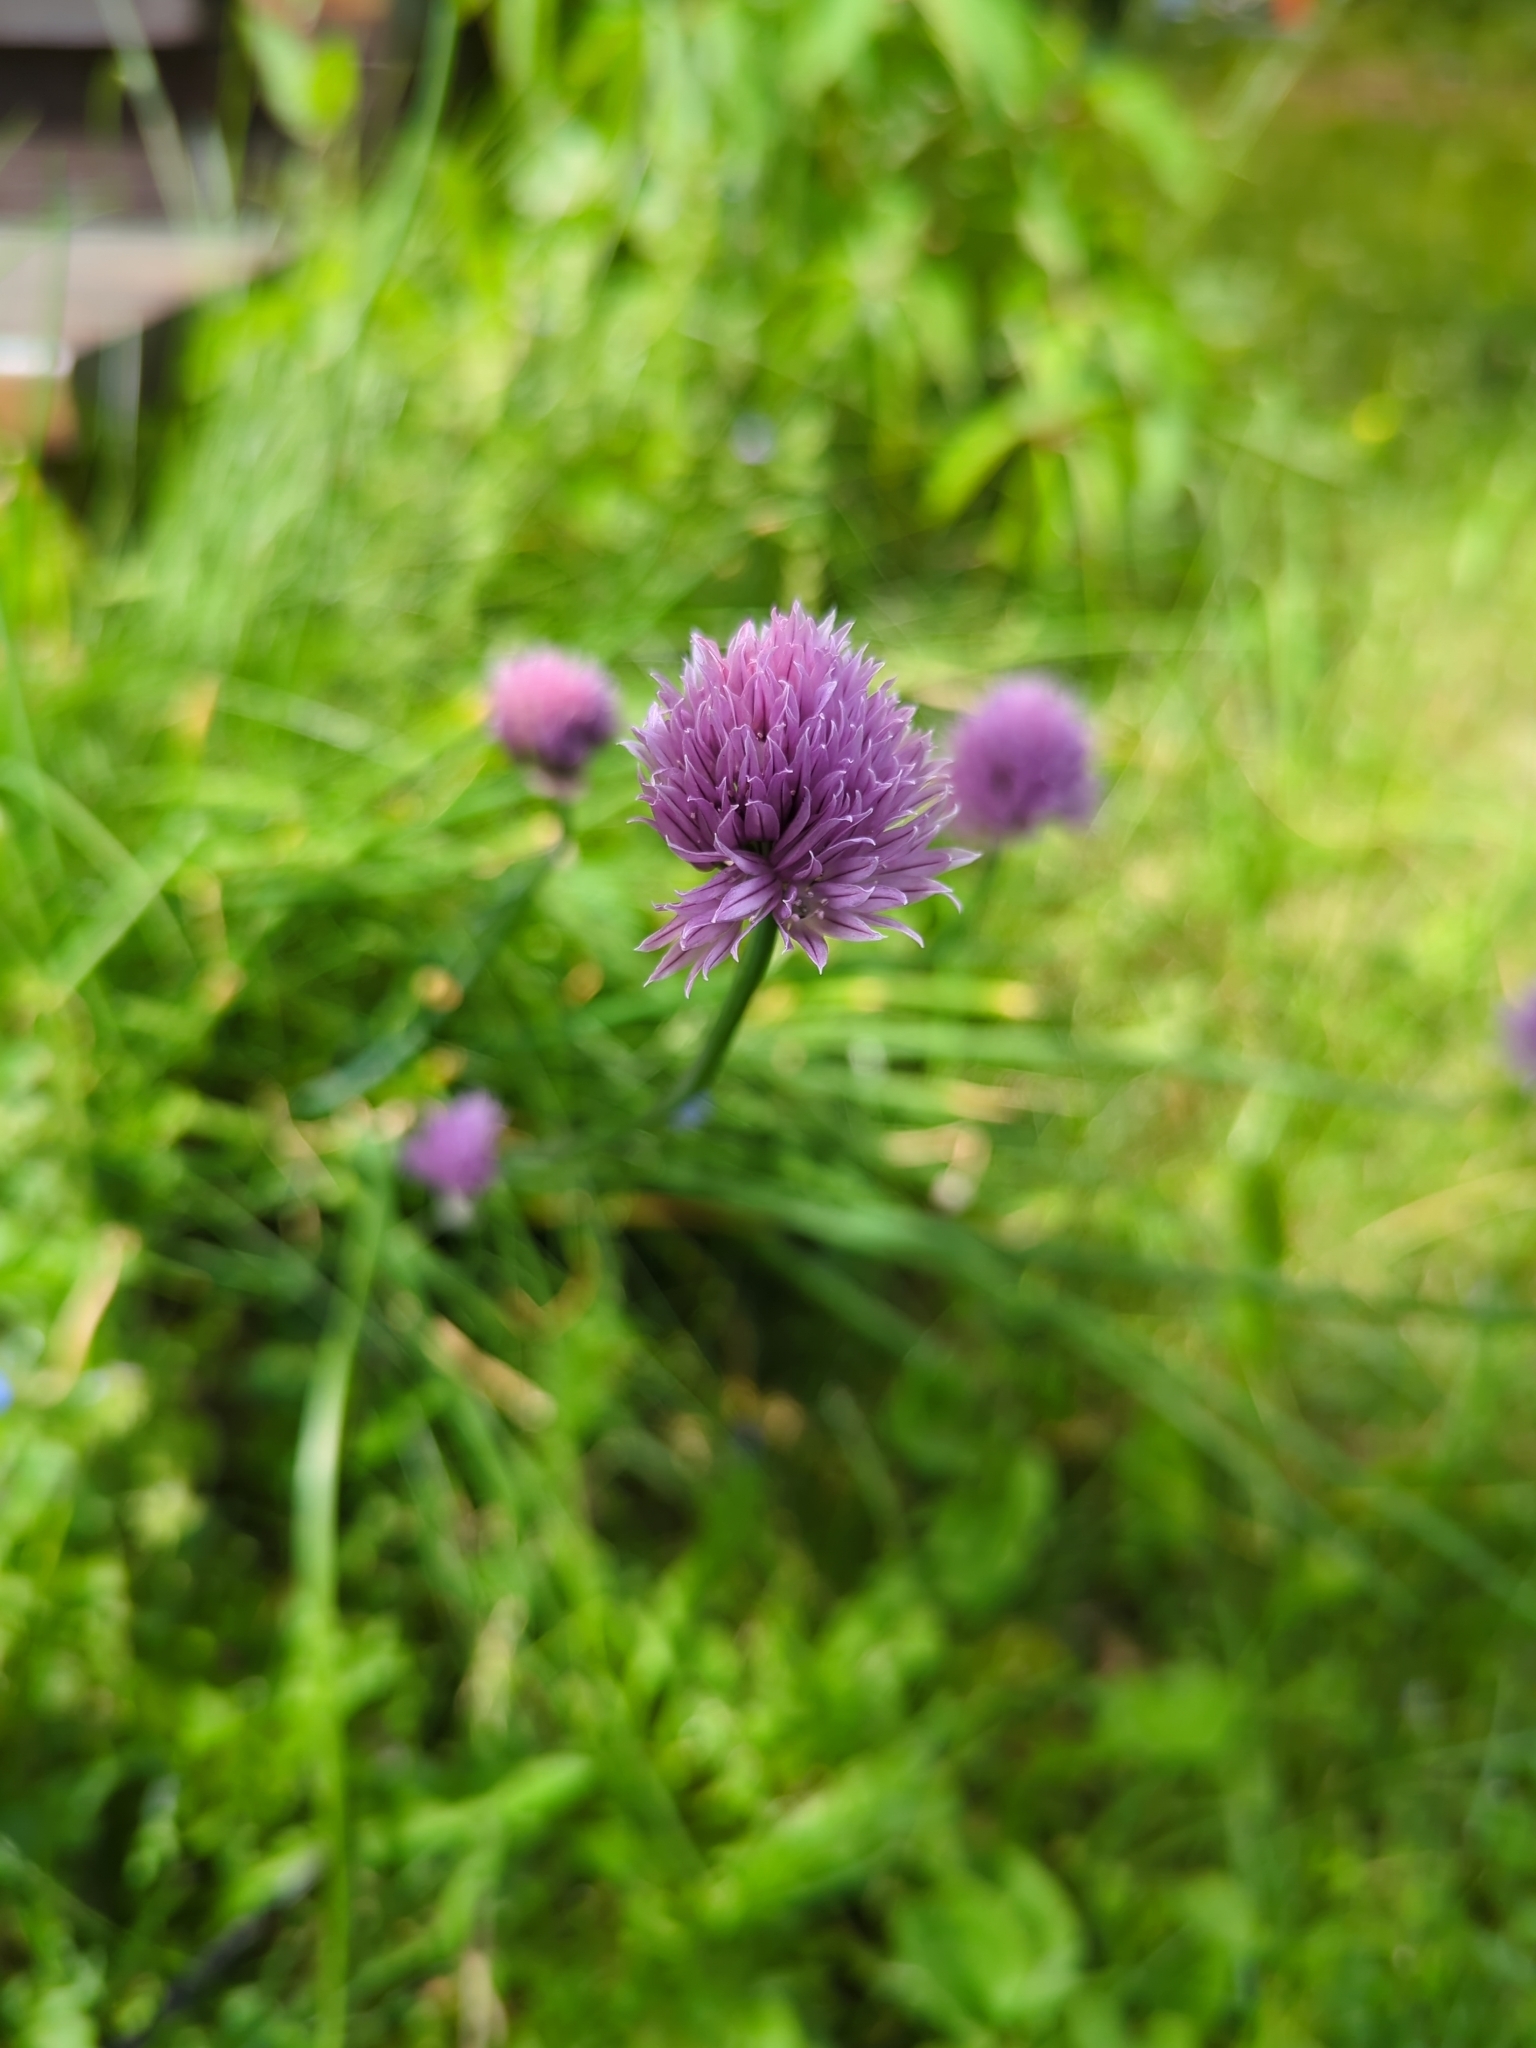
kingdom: Plantae
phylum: Tracheophyta
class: Liliopsida
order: Asparagales
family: Amaryllidaceae
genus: Allium
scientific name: Allium schoenoprasum
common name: Chives
